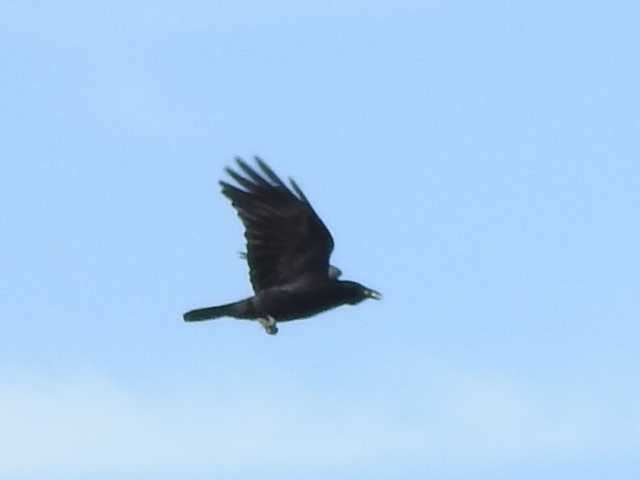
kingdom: Animalia
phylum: Chordata
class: Aves
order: Passeriformes
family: Corvidae
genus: Corvus
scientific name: Corvus brachyrhynchos
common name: American crow
